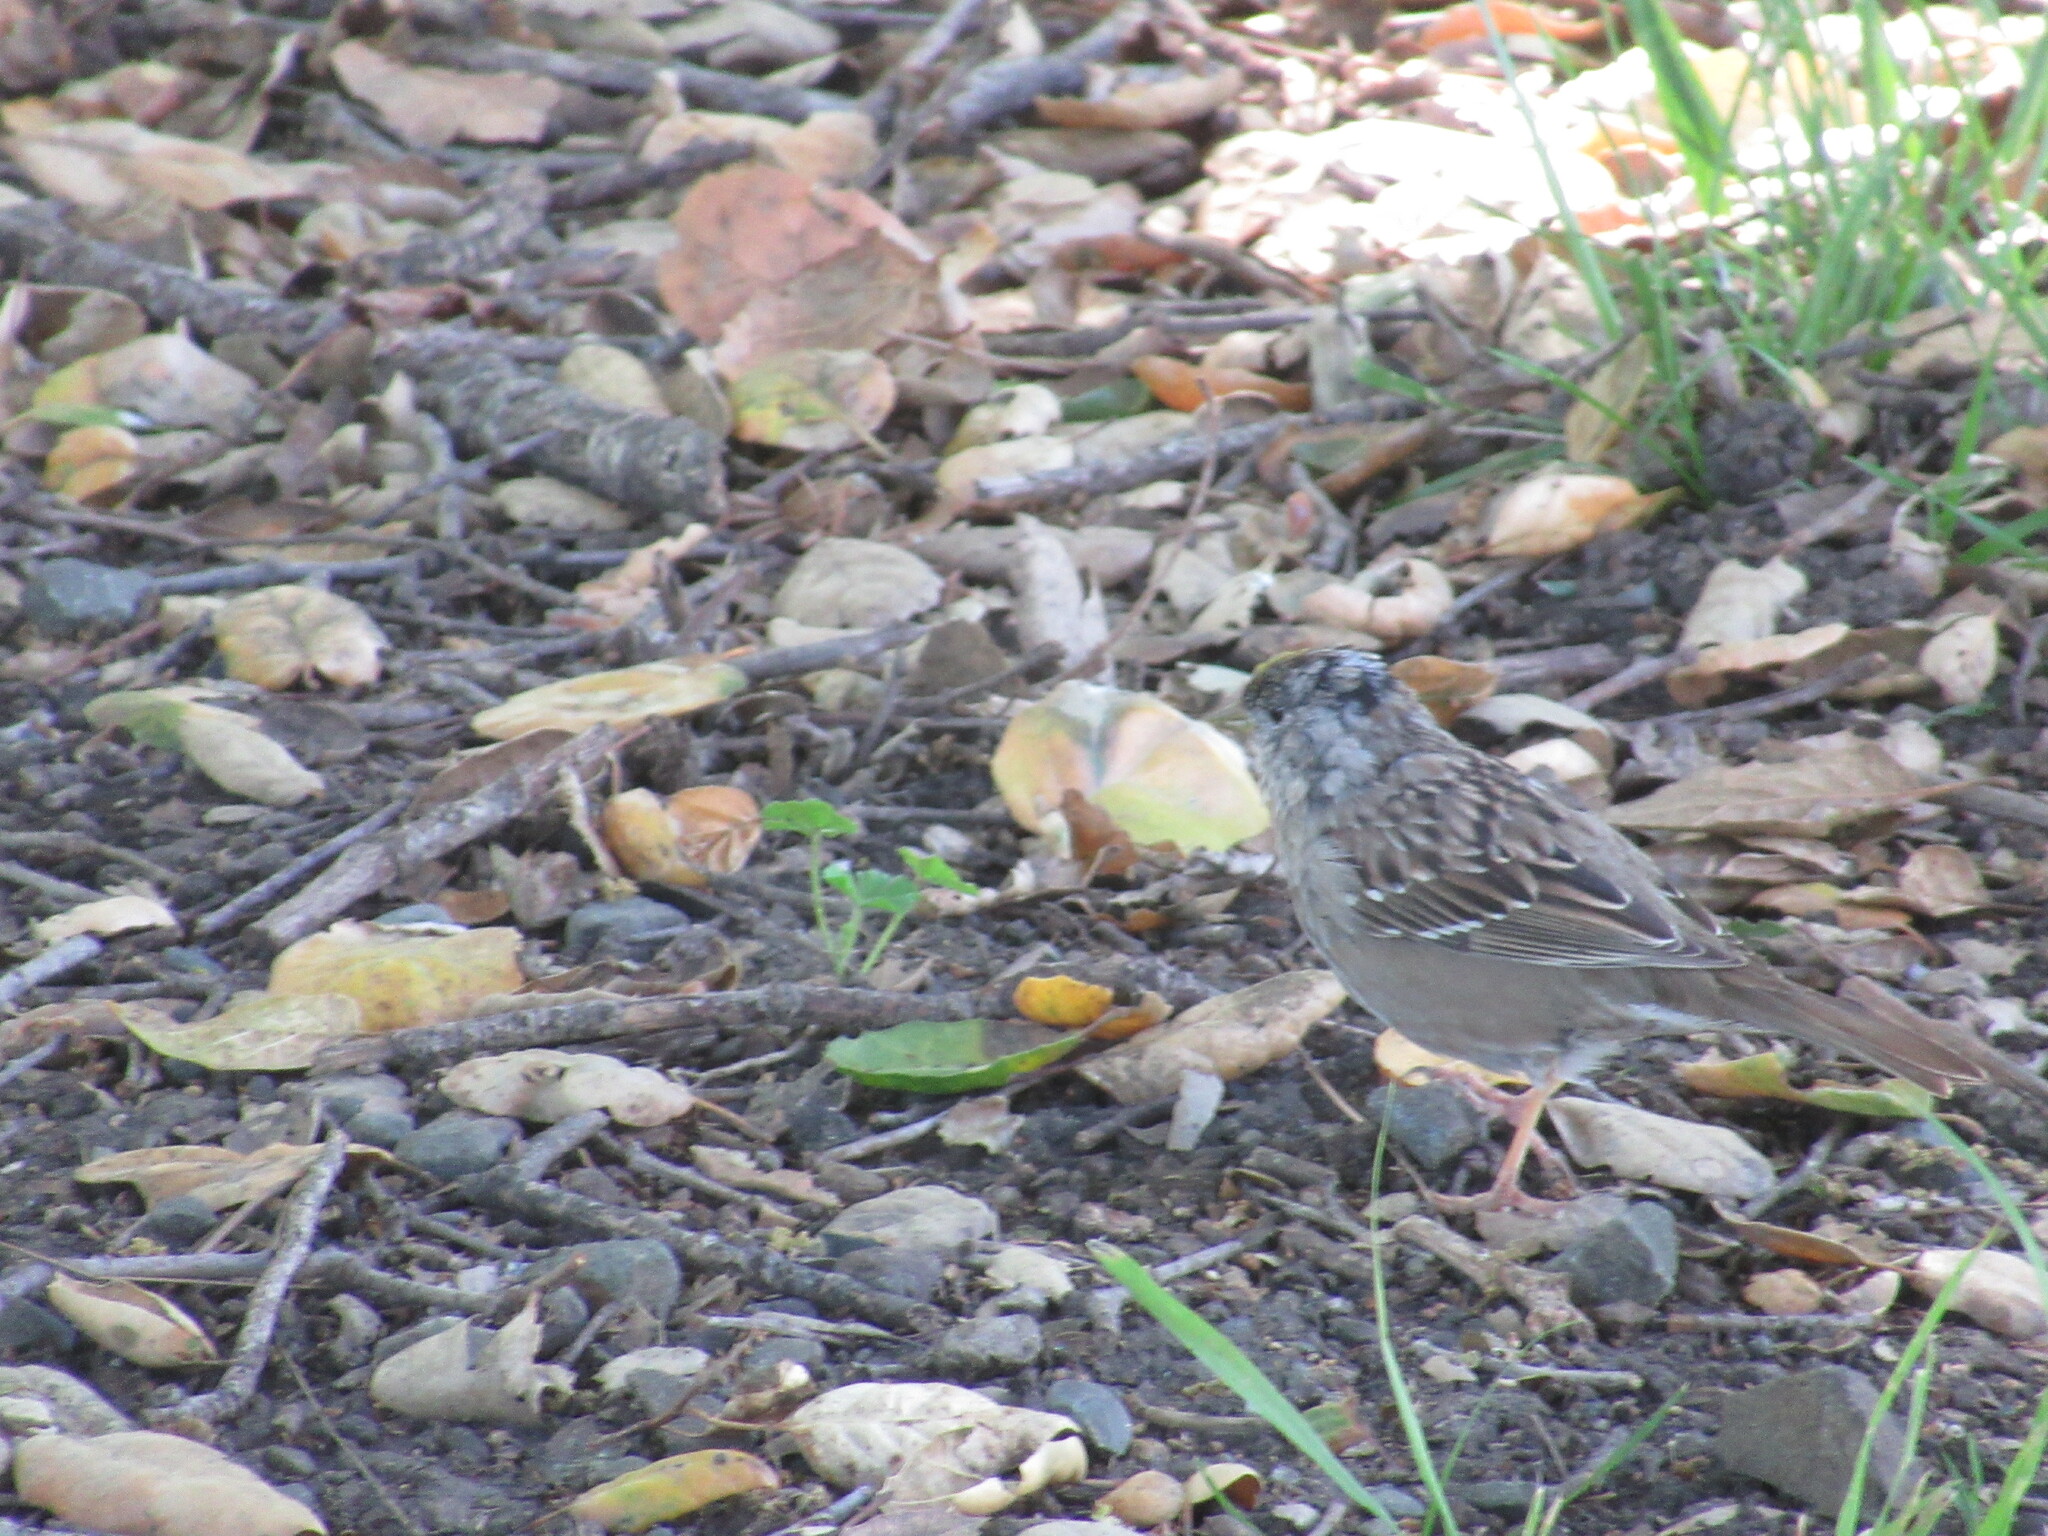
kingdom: Animalia
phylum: Chordata
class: Aves
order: Passeriformes
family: Passerellidae
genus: Zonotrichia
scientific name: Zonotrichia atricapilla
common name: Golden-crowned sparrow
